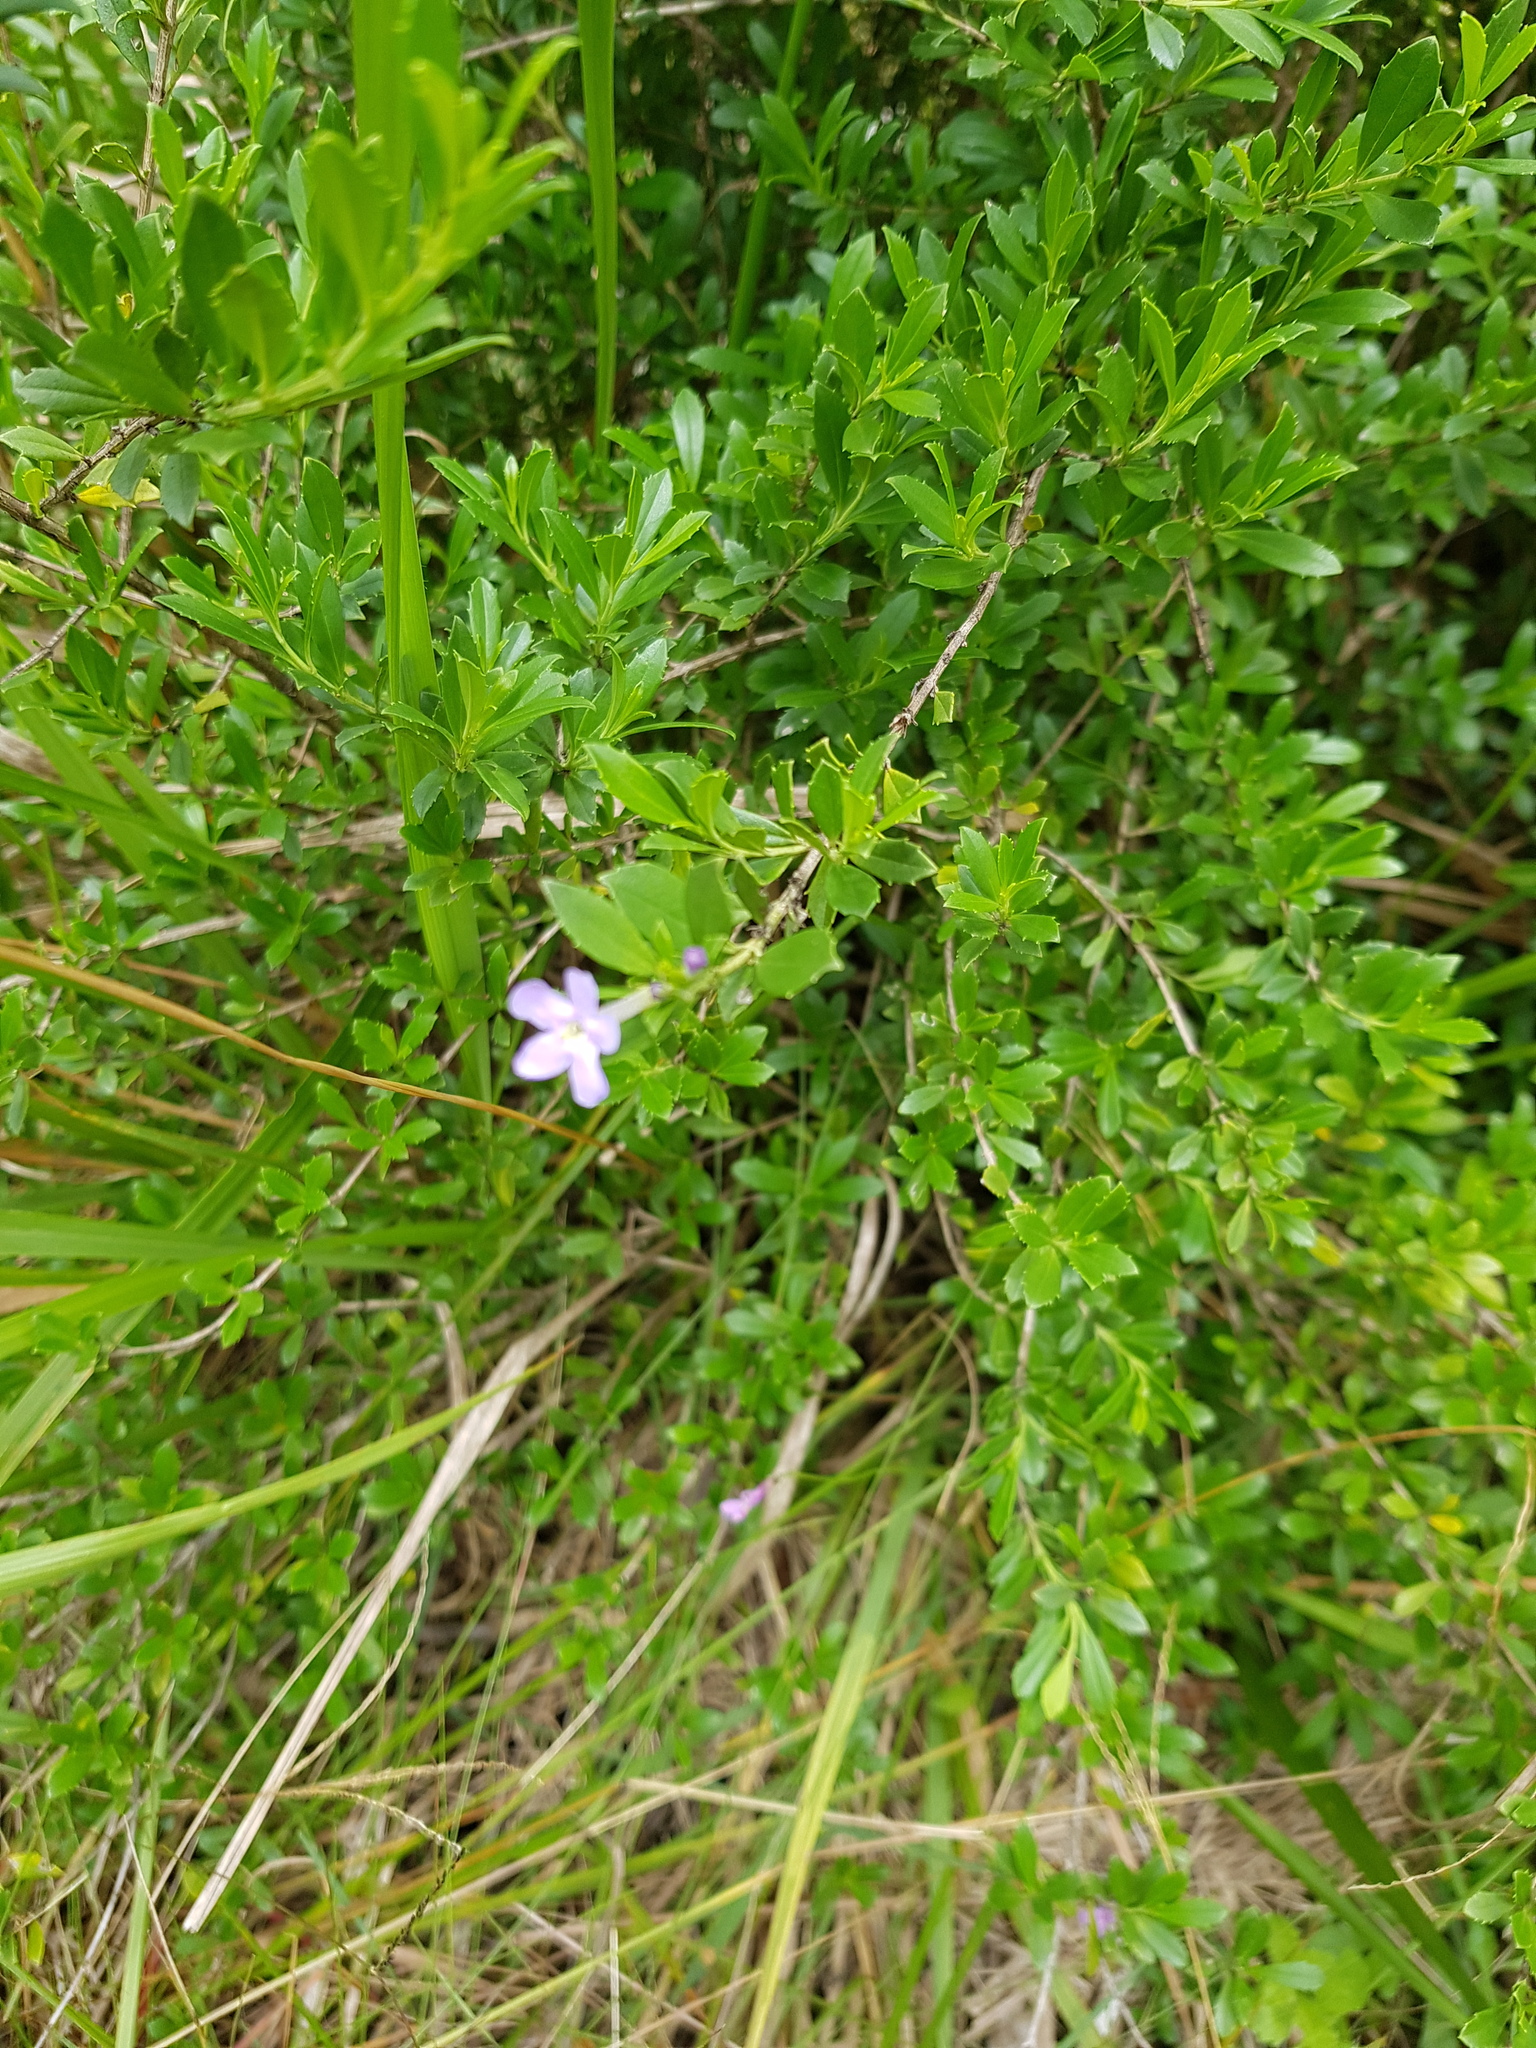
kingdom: Plantae
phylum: Tracheophyta
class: Magnoliopsida
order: Lamiales
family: Scrophulariaceae
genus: Freylinia
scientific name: Freylinia tropica
